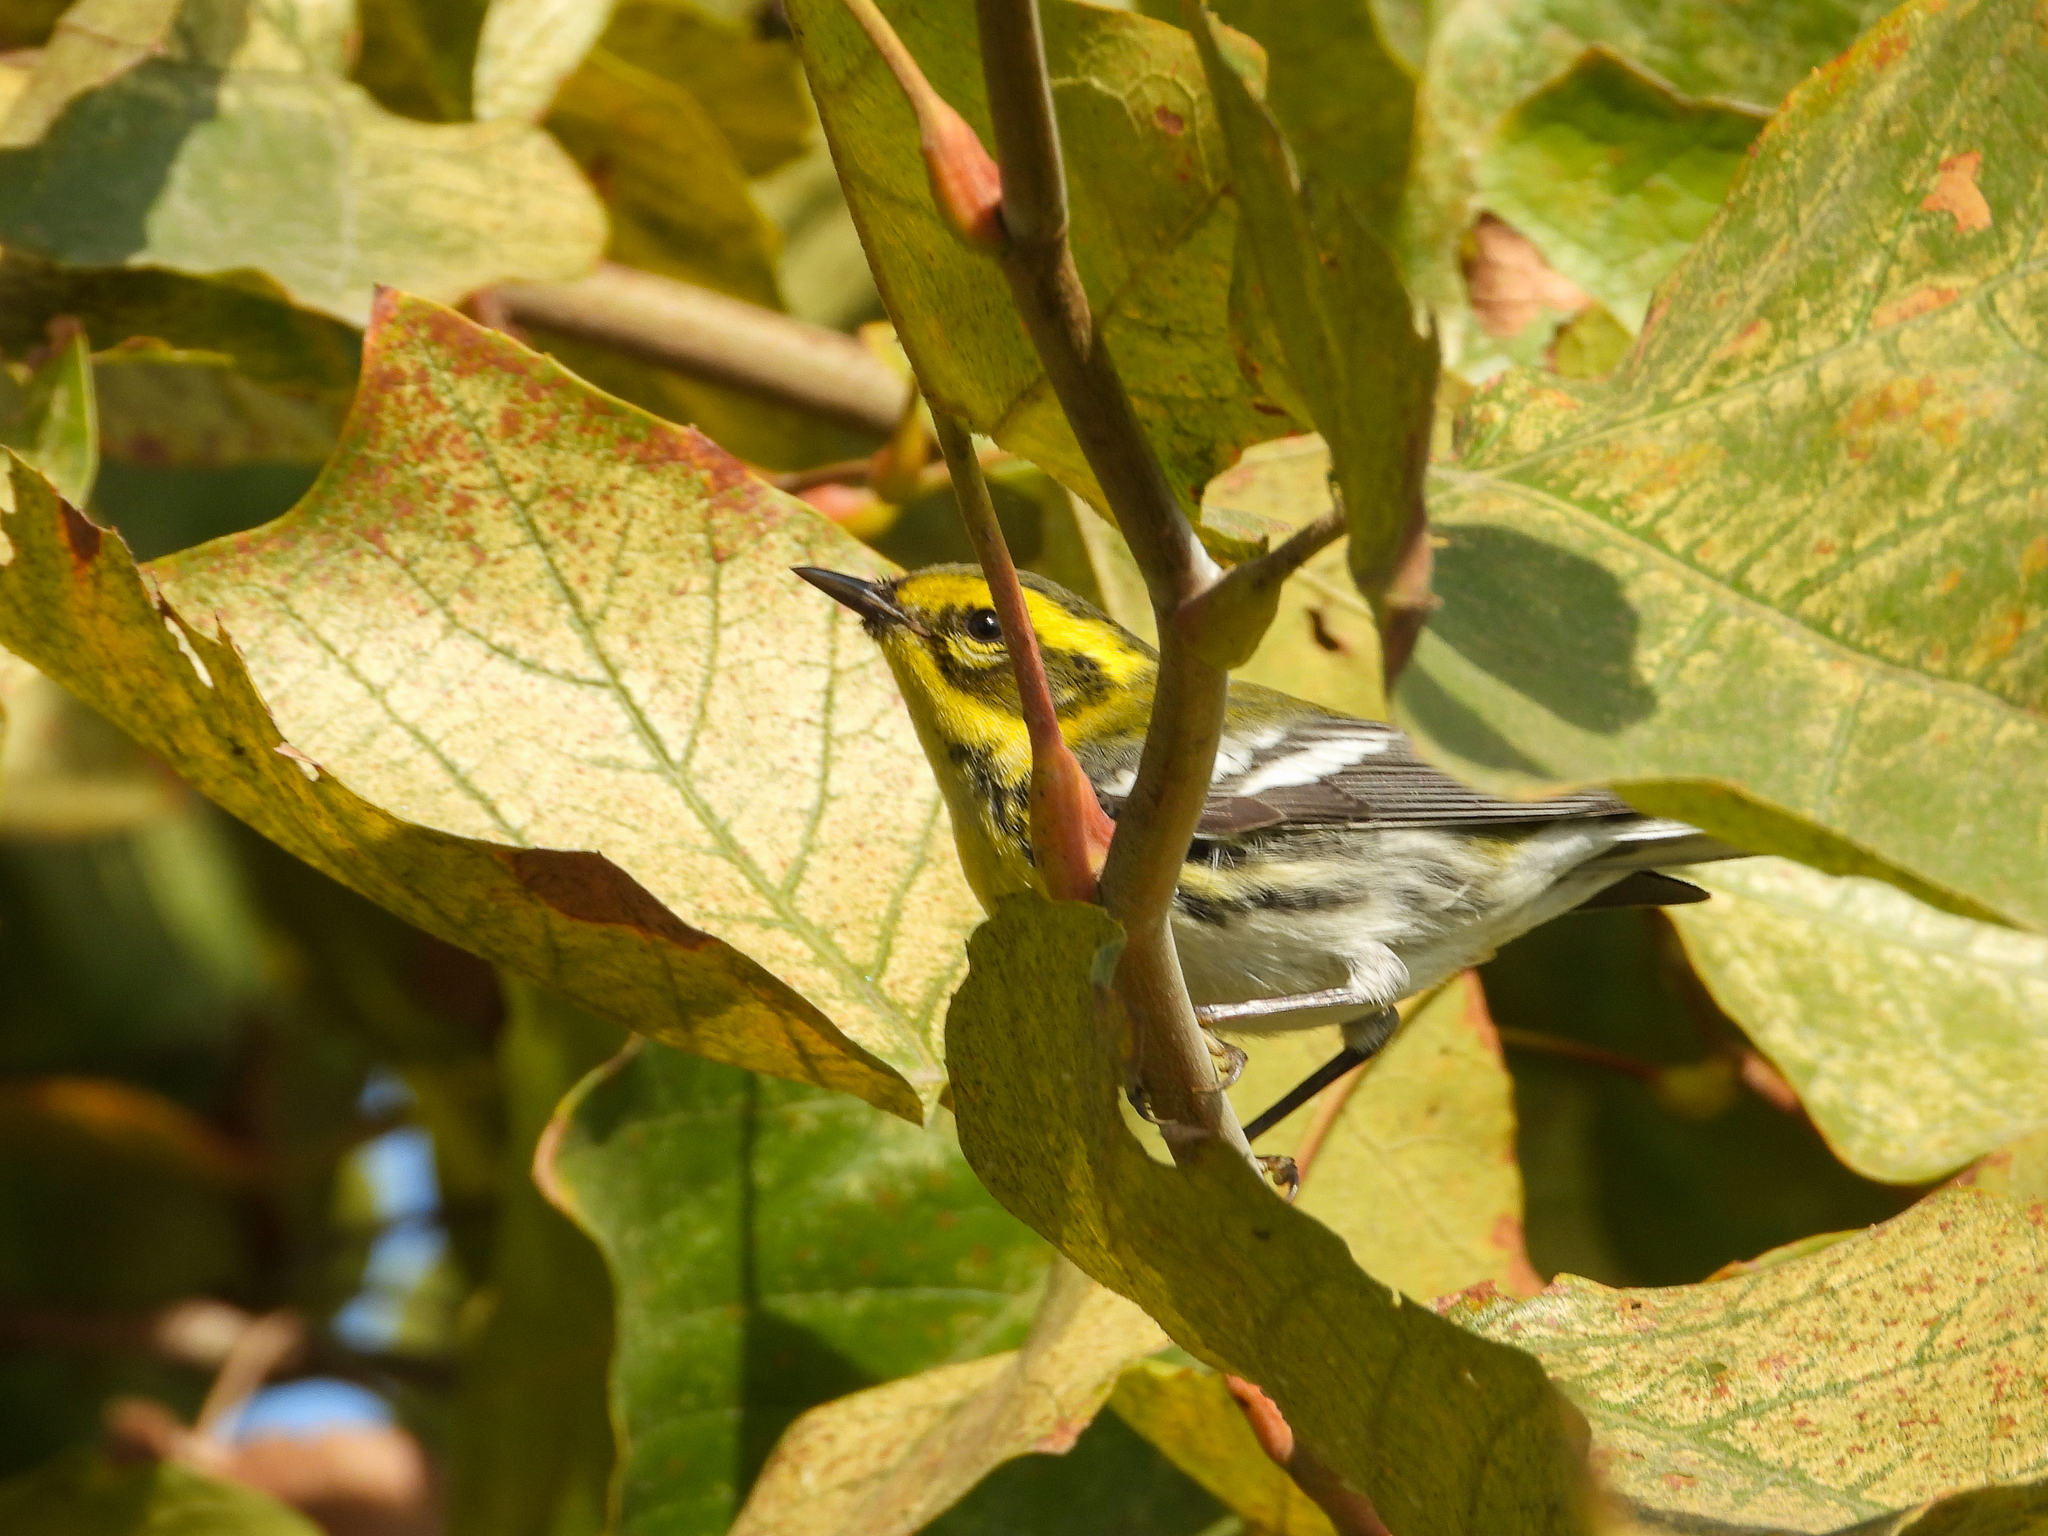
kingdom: Animalia
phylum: Chordata
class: Aves
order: Passeriformes
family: Parulidae
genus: Setophaga
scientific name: Setophaga townsendi
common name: Townsend's warbler
